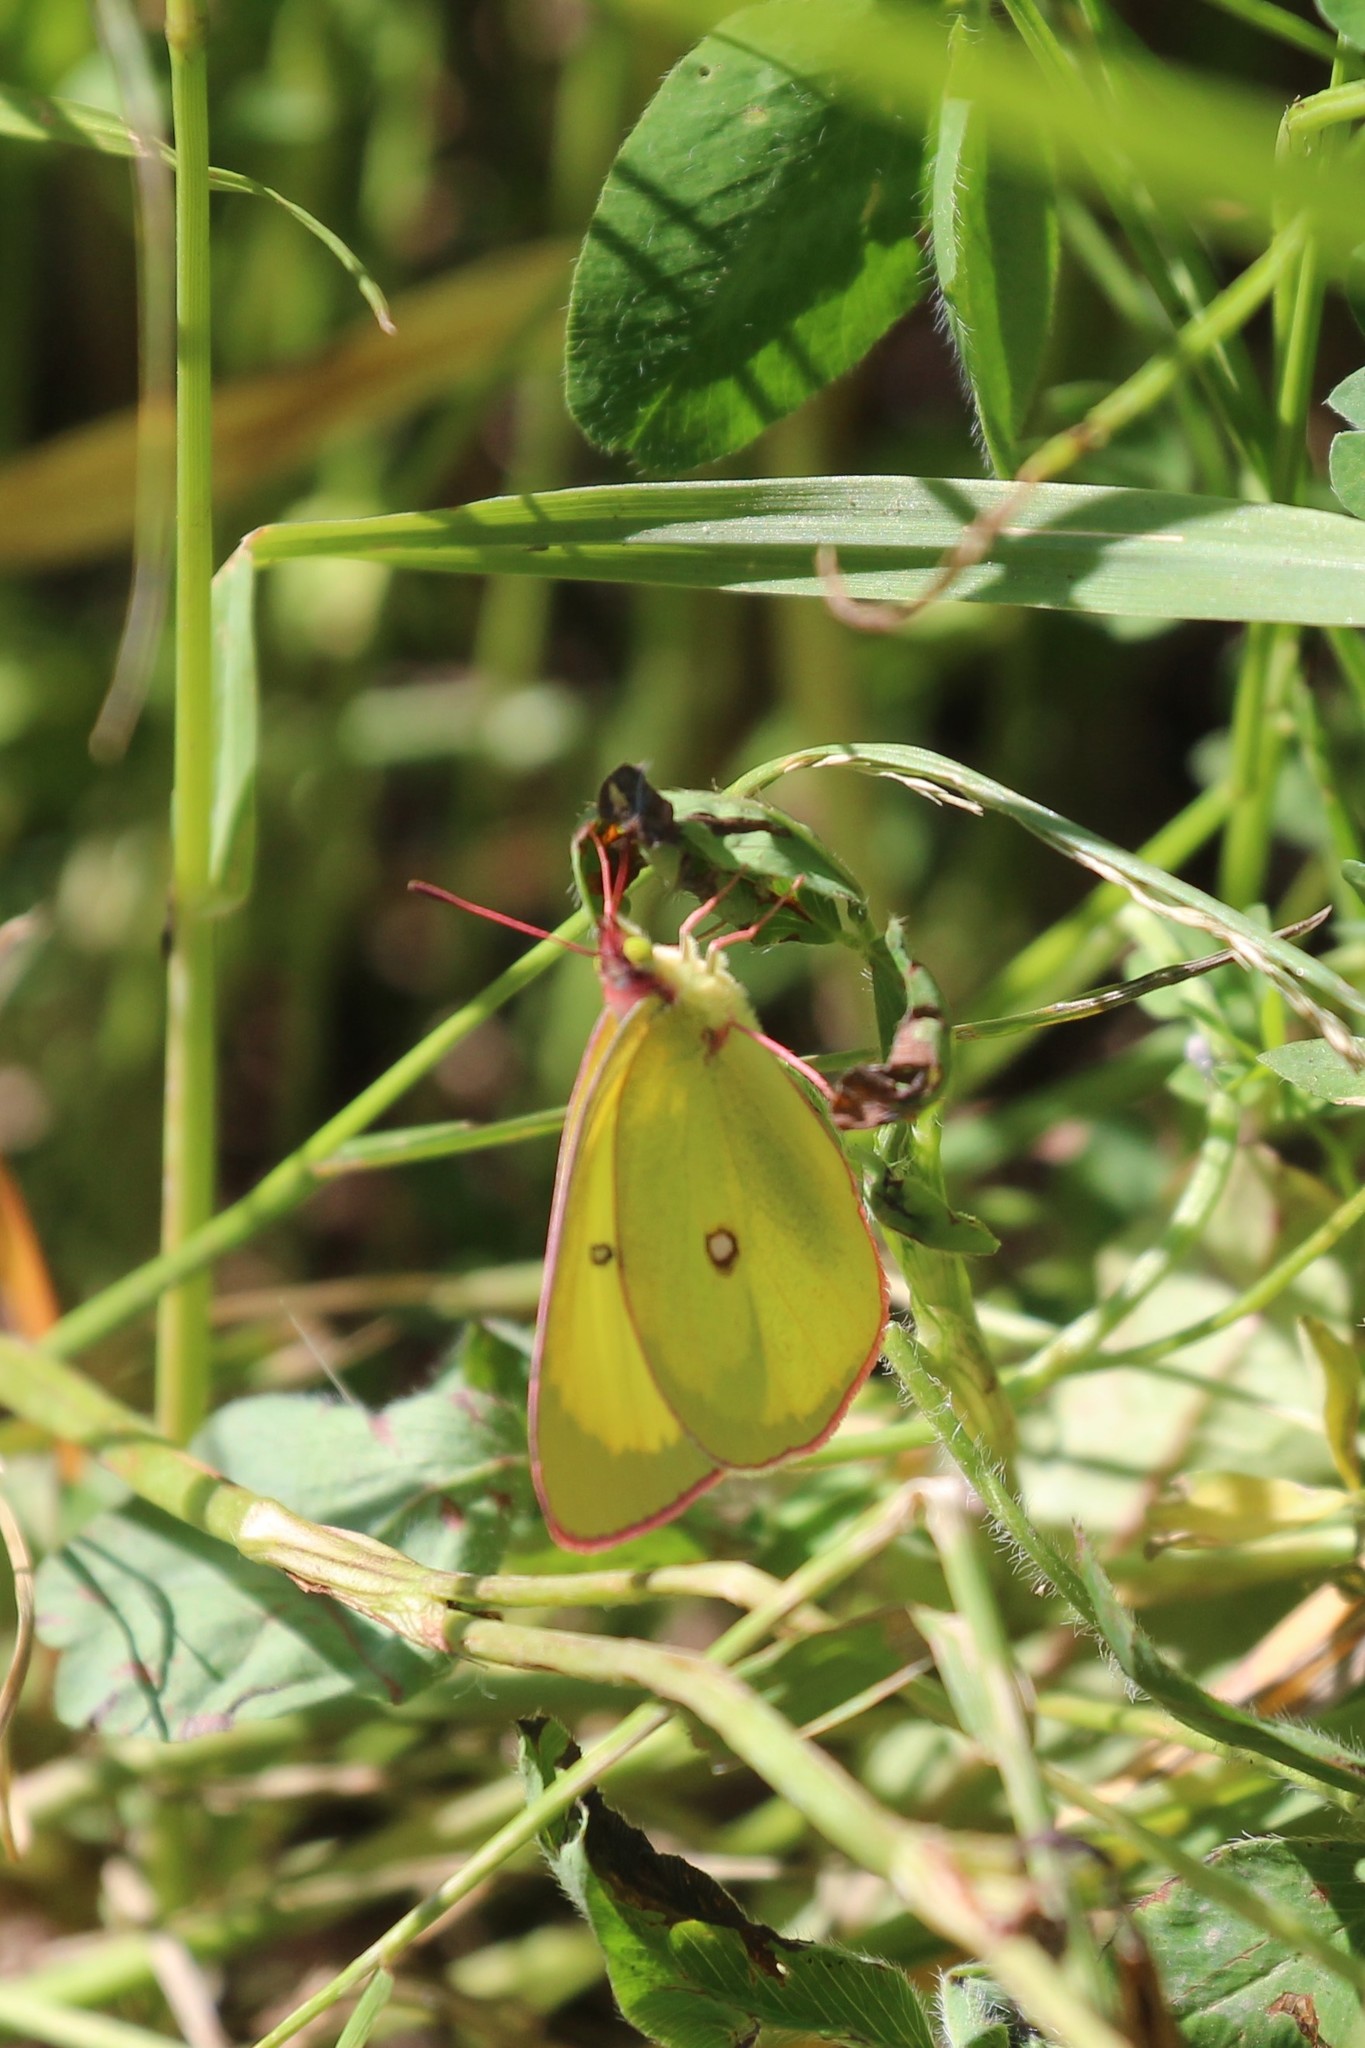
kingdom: Animalia
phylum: Arthropoda
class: Insecta
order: Lepidoptera
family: Pieridae
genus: Colias
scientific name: Colias interior
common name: Pink-edged sulphur
